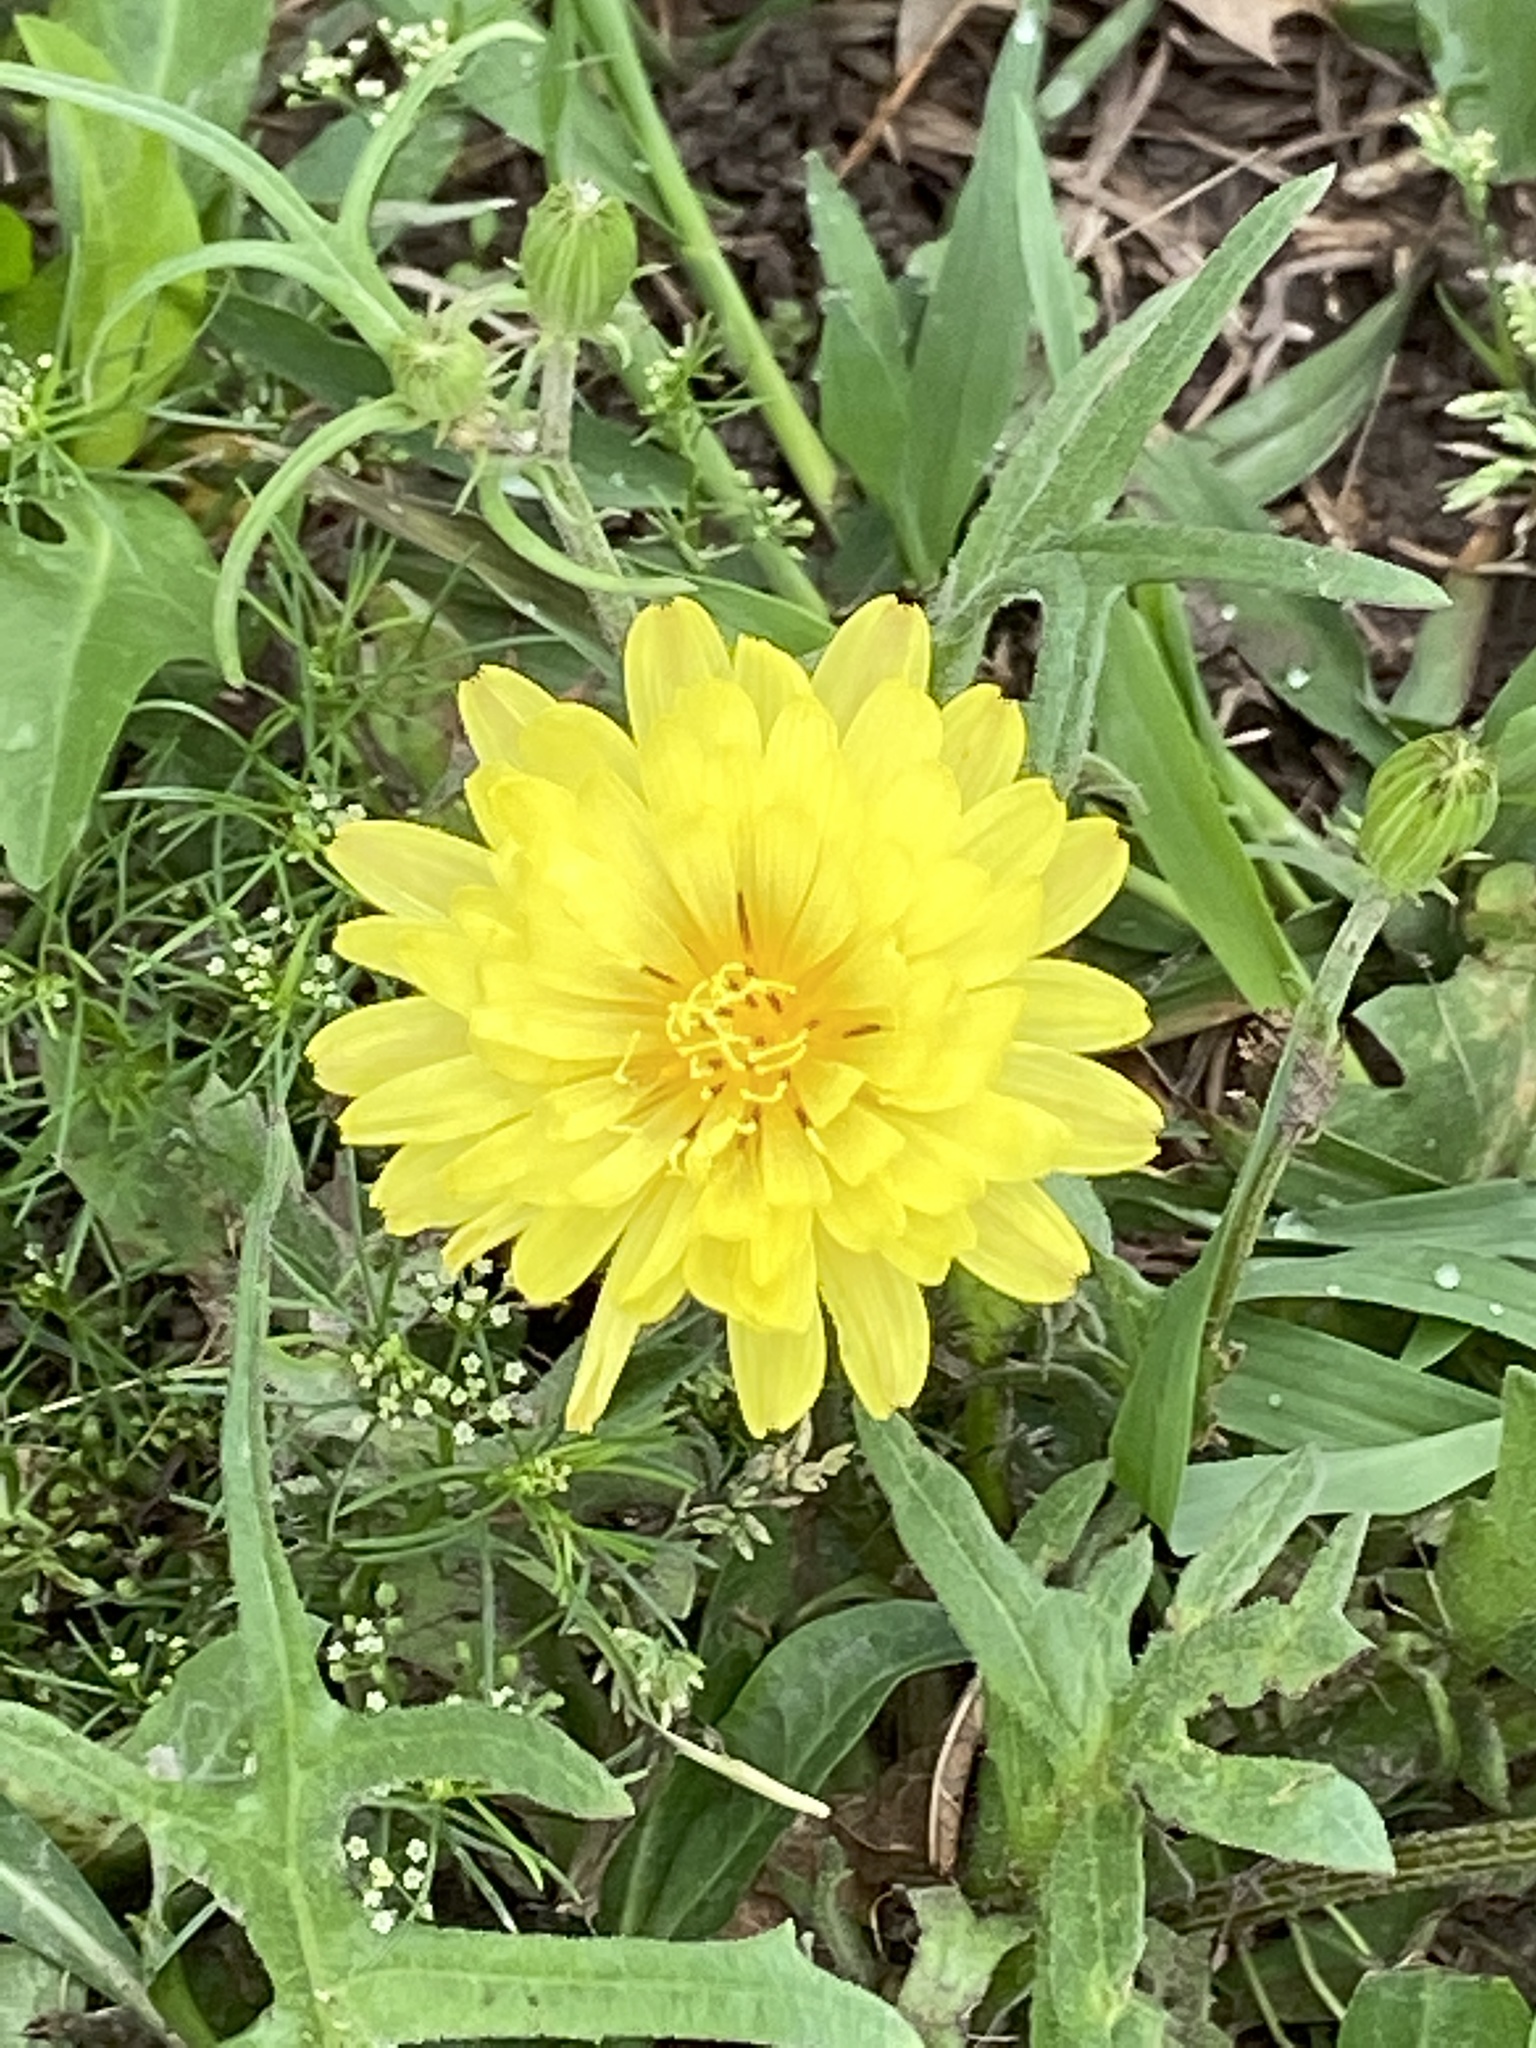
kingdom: Plantae
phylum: Tracheophyta
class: Magnoliopsida
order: Asterales
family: Asteraceae
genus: Pyrrhopappus
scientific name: Pyrrhopappus pauciflorus
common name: Texas false dandelion
